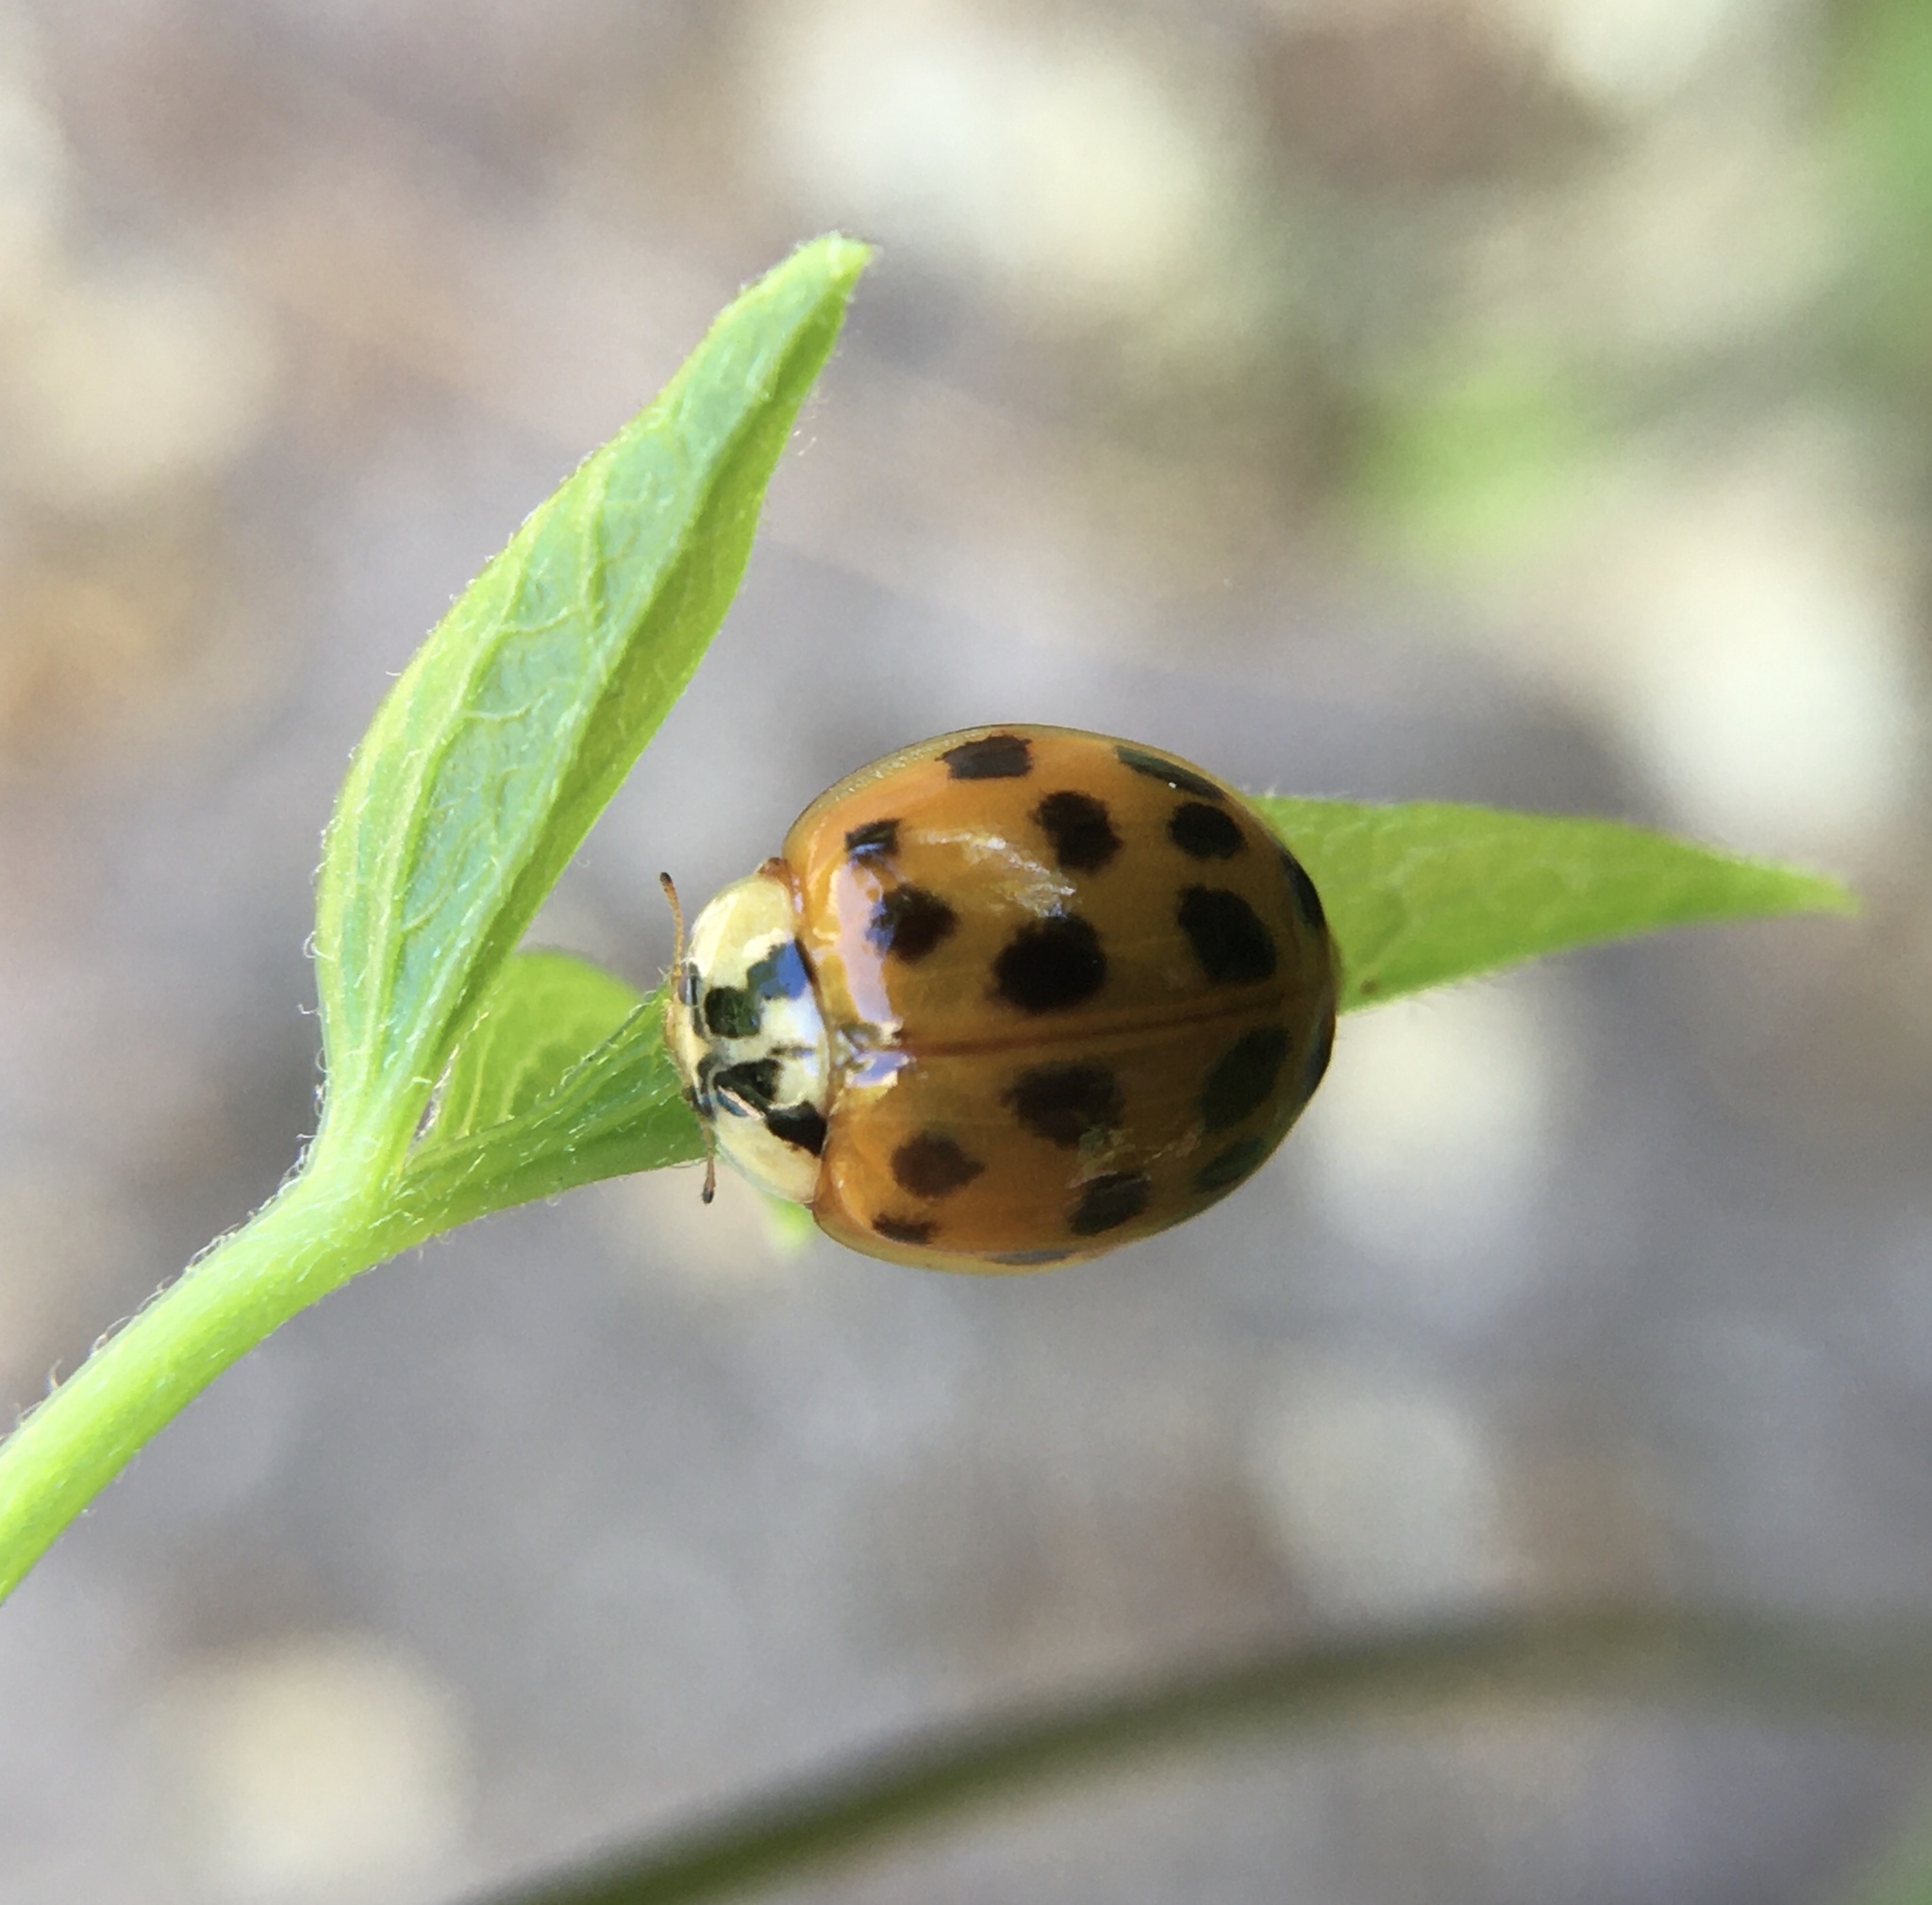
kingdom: Animalia
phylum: Arthropoda
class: Insecta
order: Coleoptera
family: Coccinellidae
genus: Harmonia
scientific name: Harmonia axyridis
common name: Harlequin ladybird
